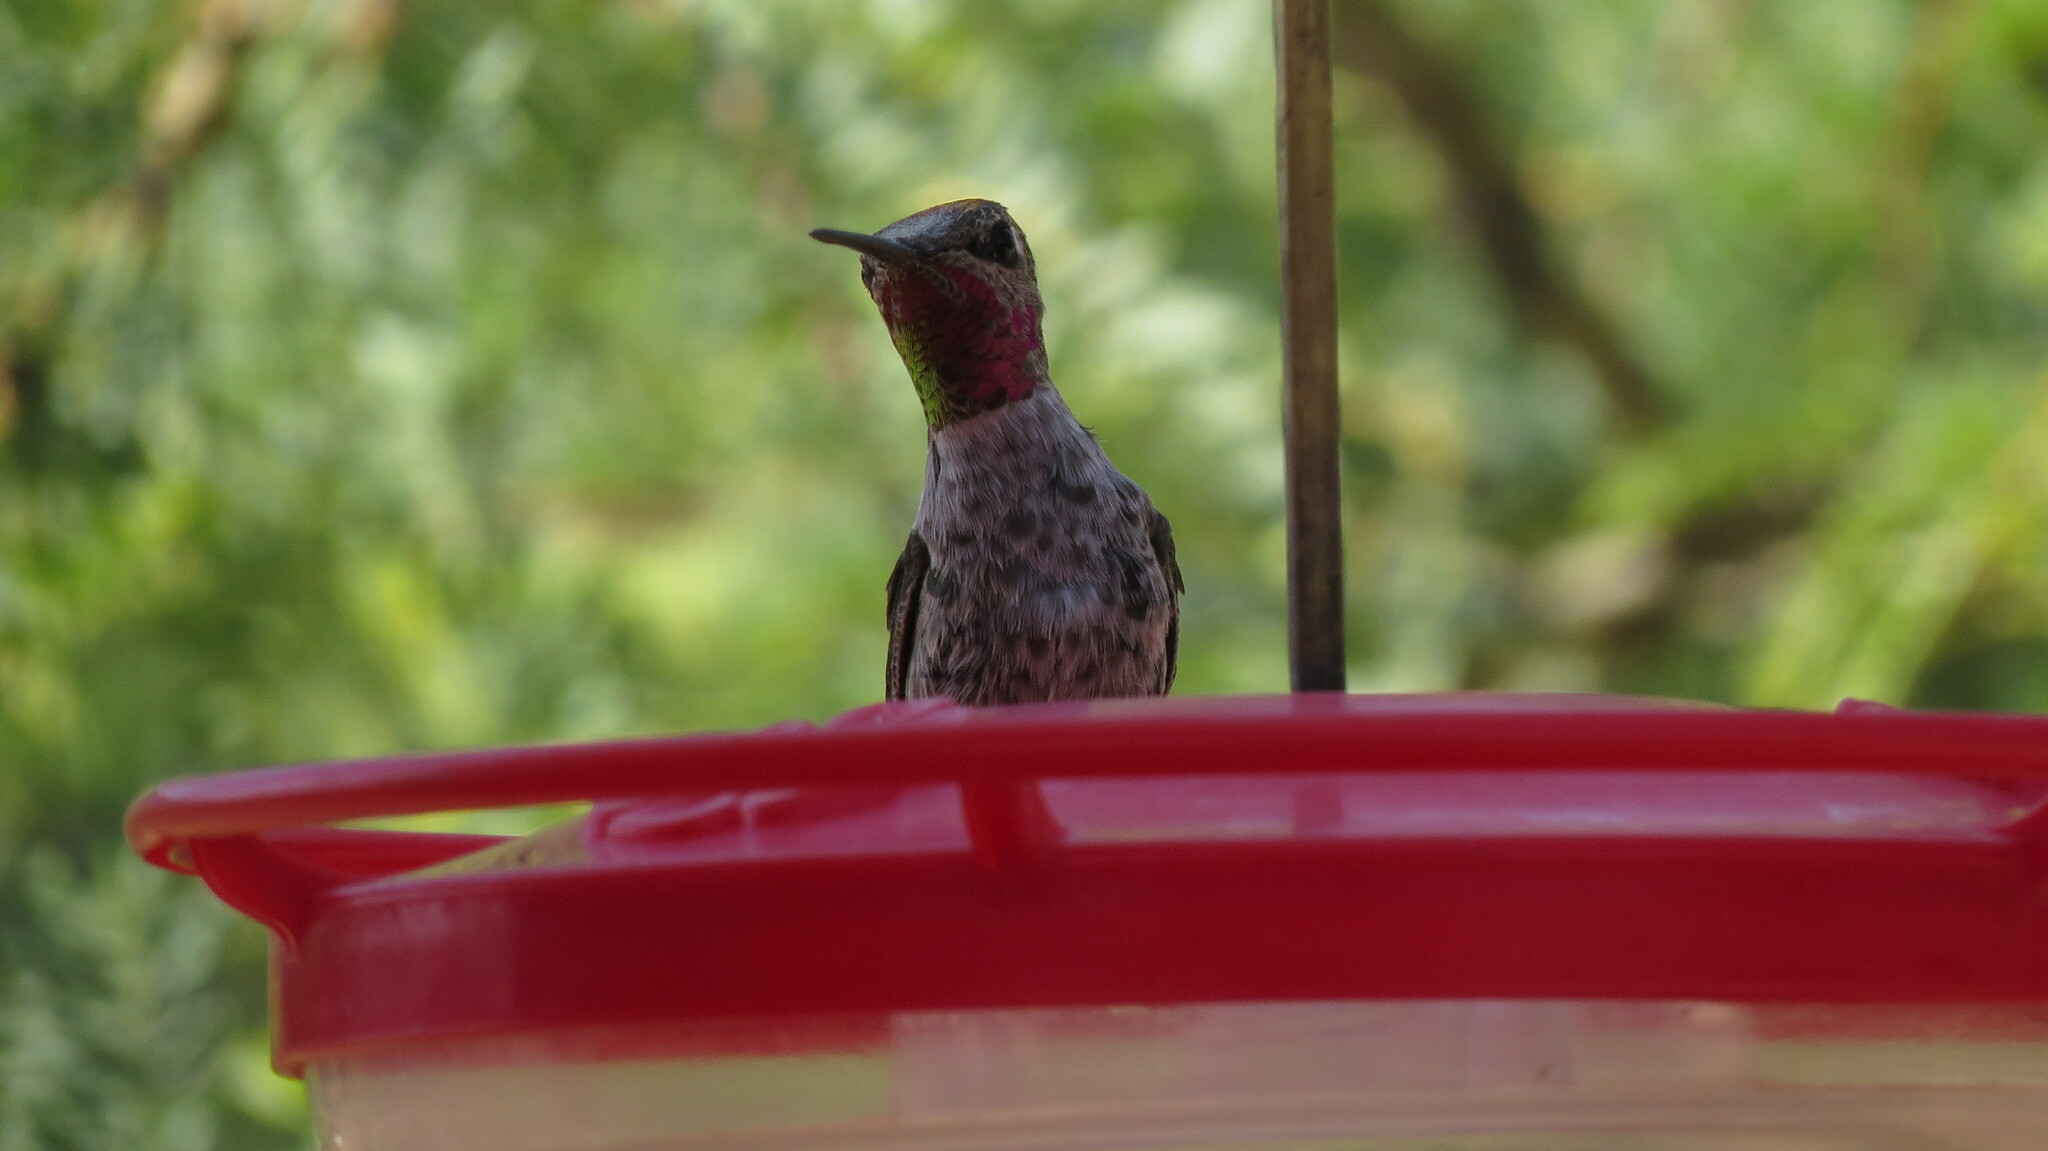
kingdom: Animalia
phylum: Chordata
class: Aves
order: Apodiformes
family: Trochilidae
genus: Calypte
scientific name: Calypte anna
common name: Anna's hummingbird
